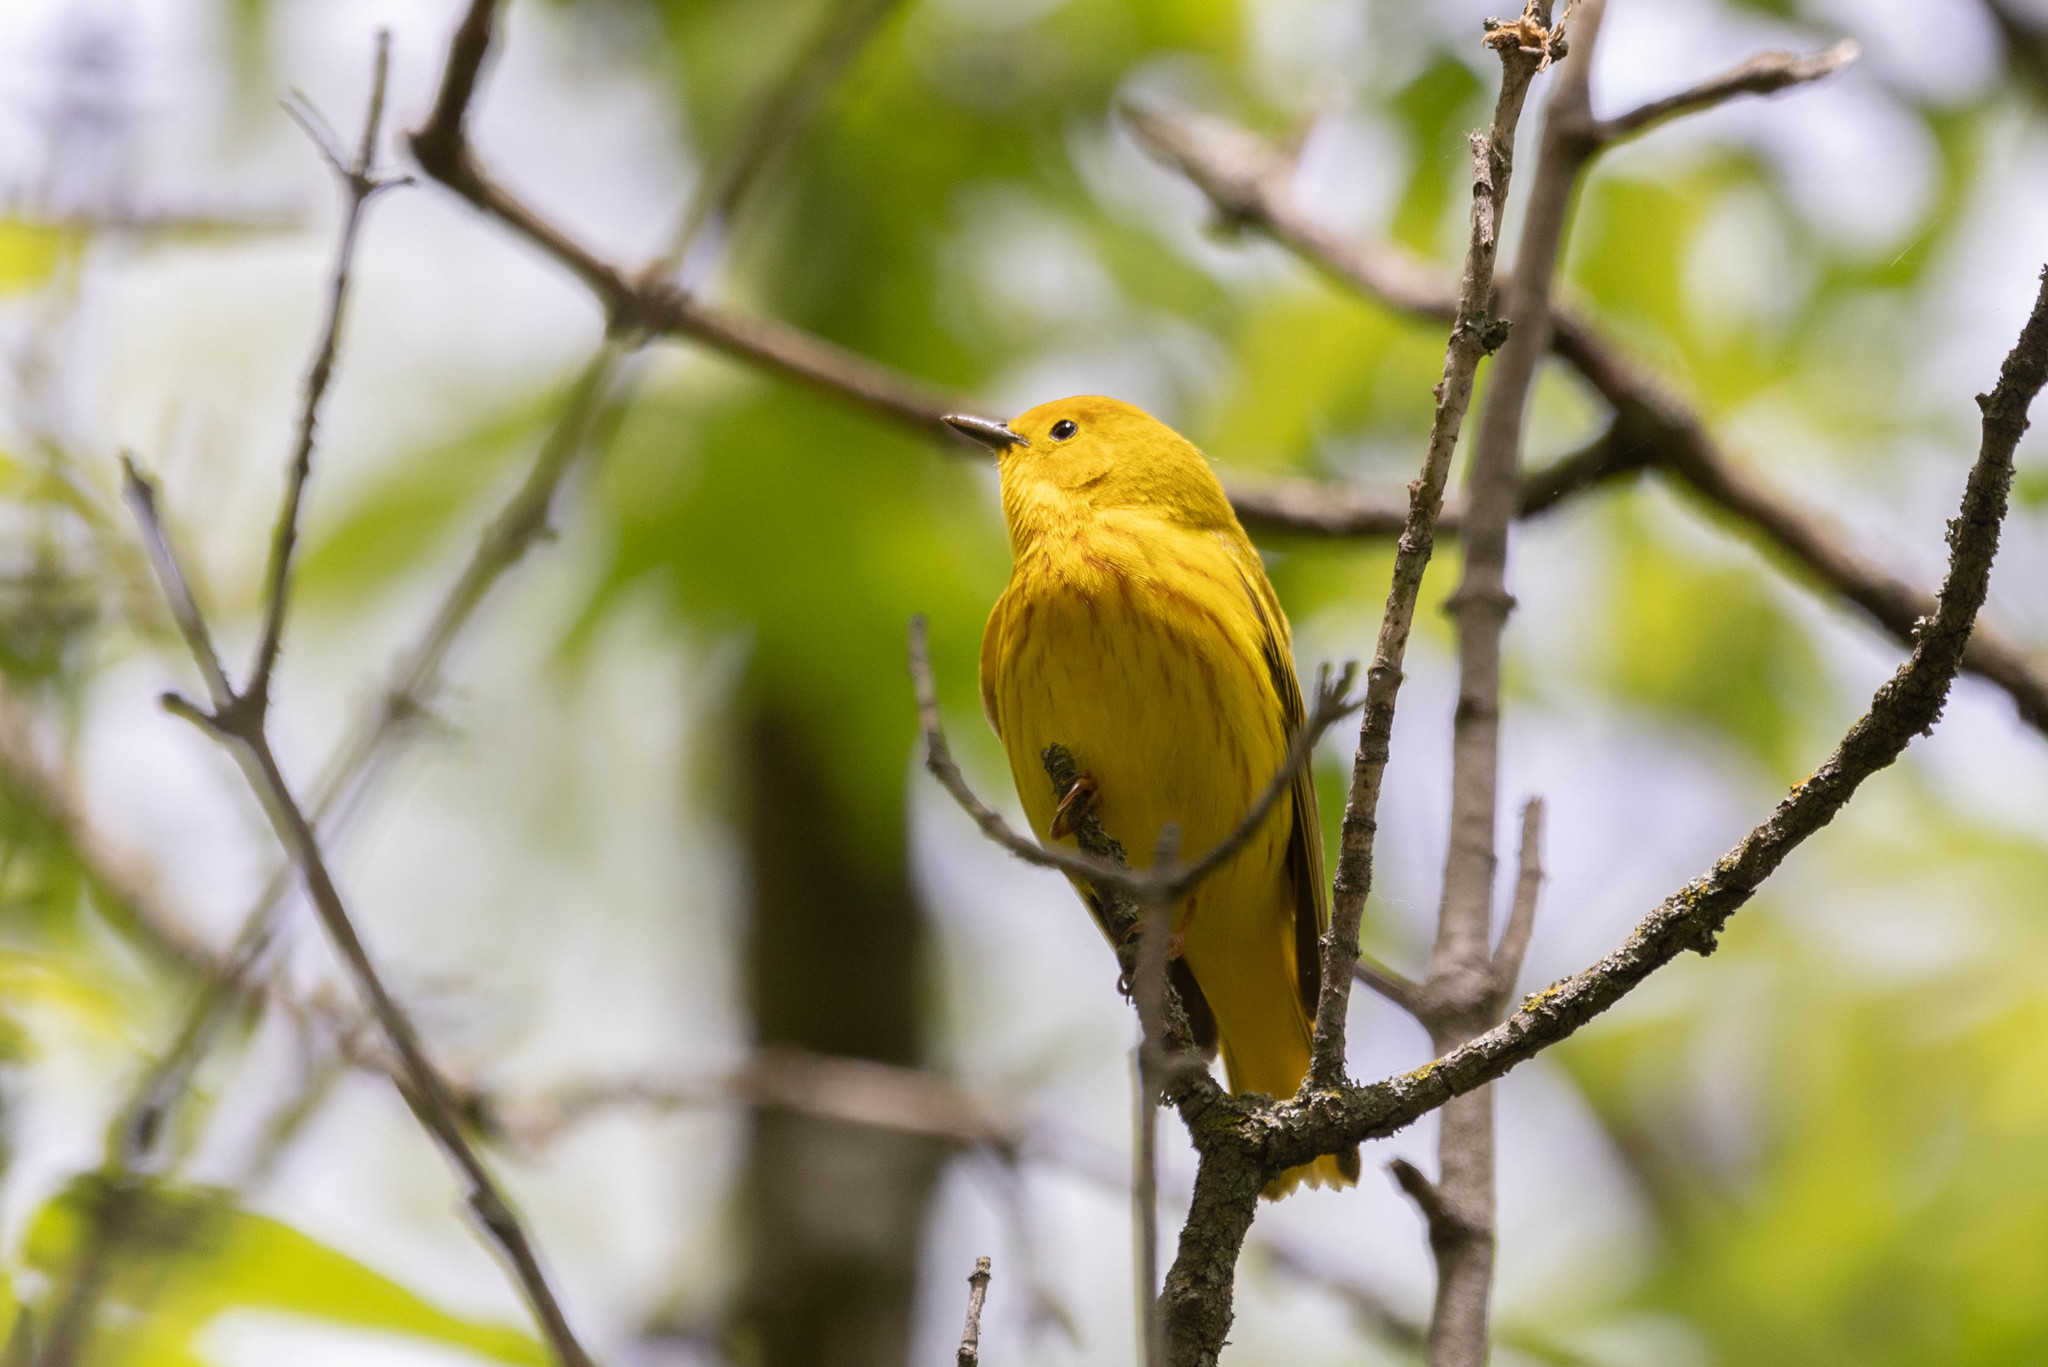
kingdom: Animalia
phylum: Chordata
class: Aves
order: Passeriformes
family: Parulidae
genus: Setophaga
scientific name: Setophaga petechia
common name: Yellow warbler
